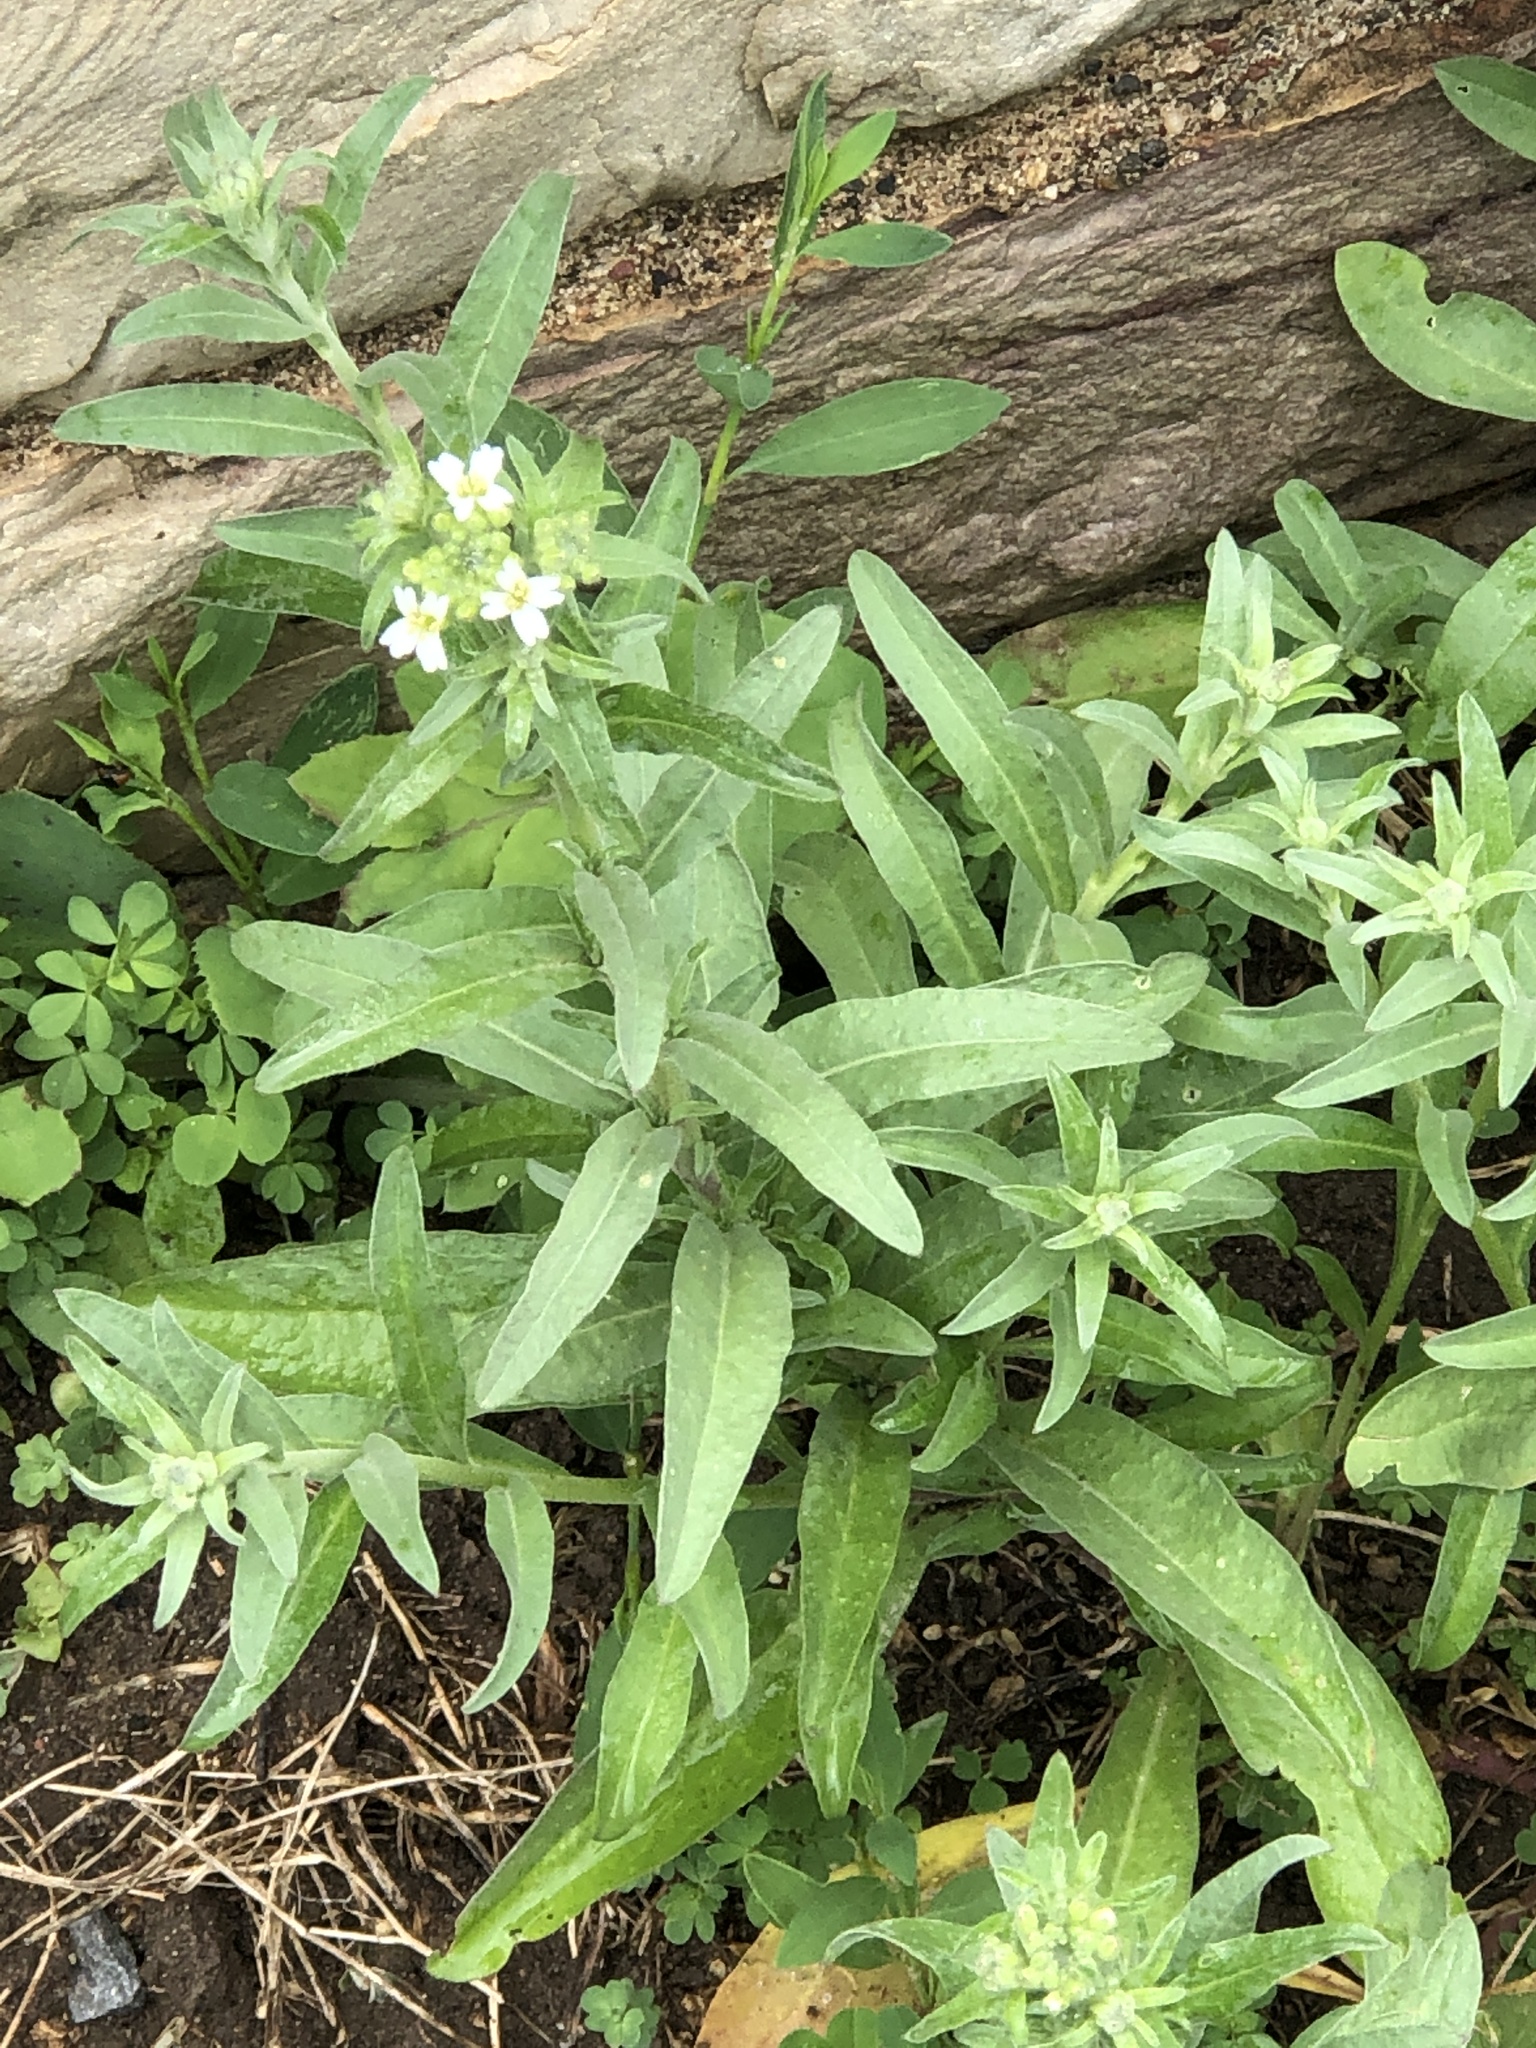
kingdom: Plantae
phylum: Tracheophyta
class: Magnoliopsida
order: Brassicales
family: Brassicaceae
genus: Berteroa
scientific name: Berteroa incana
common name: Hoary alison
